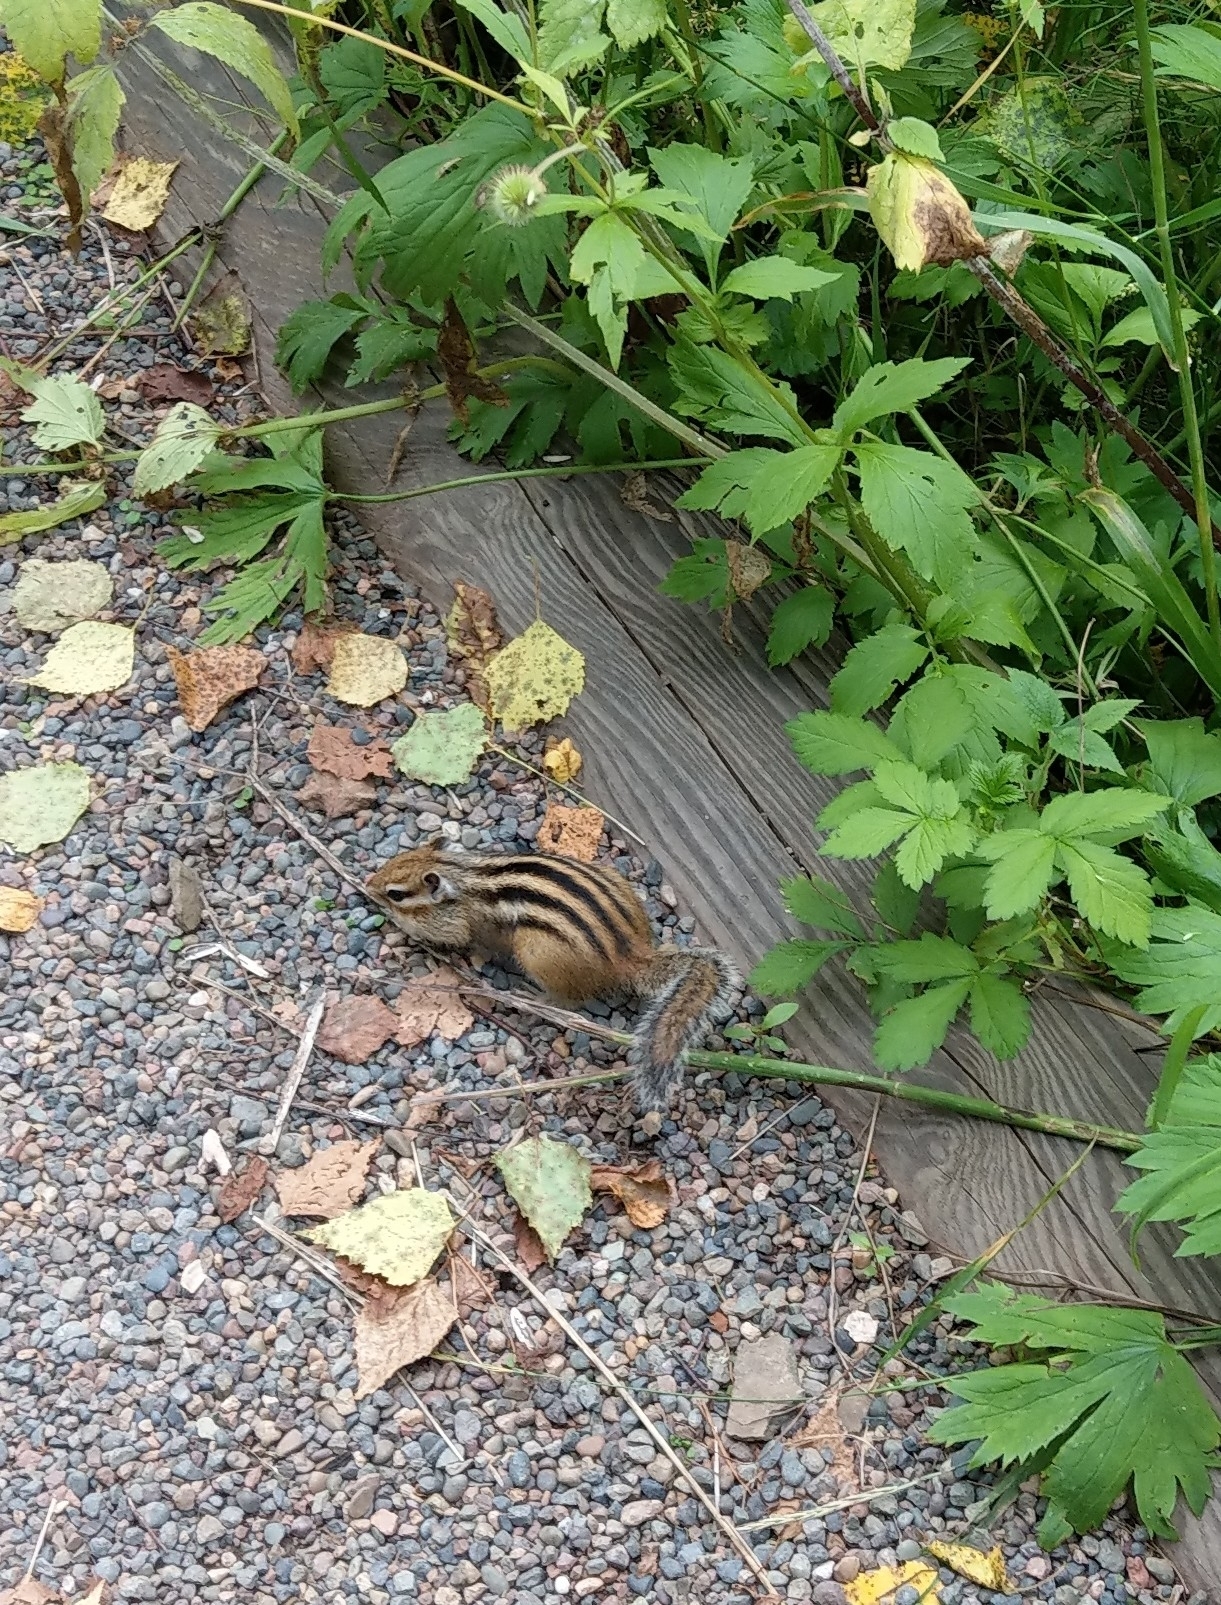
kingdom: Animalia
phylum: Chordata
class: Mammalia
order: Rodentia
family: Sciuridae
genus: Tamias
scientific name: Tamias sibiricus
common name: Siberian chipmunk
